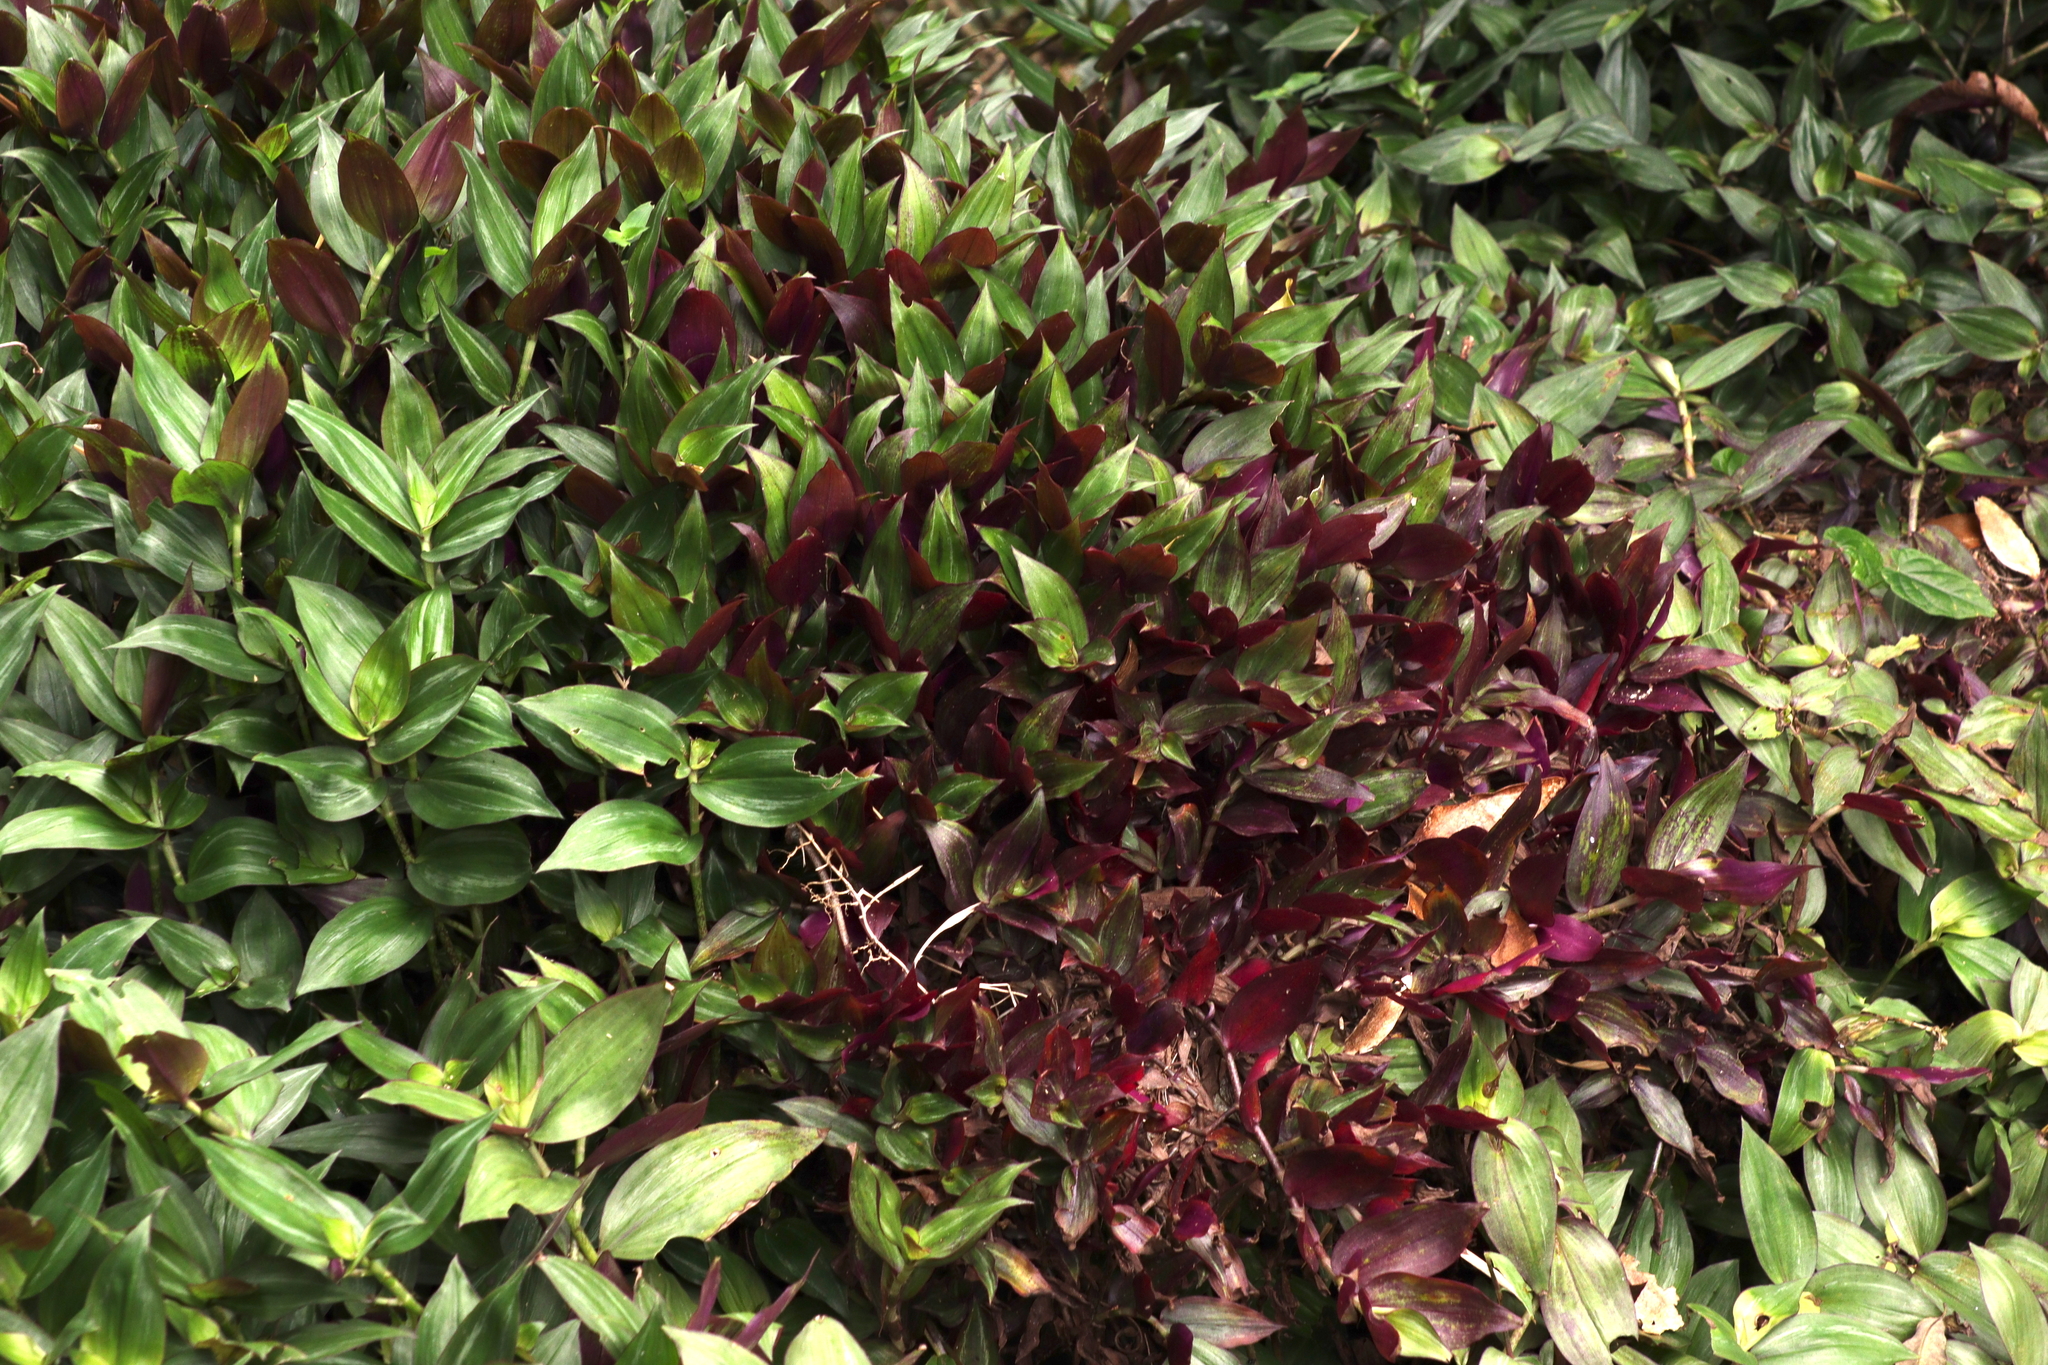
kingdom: Plantae
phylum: Tracheophyta
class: Liliopsida
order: Commelinales
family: Commelinaceae
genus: Tradescantia
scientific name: Tradescantia zebrina
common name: Inchplant
